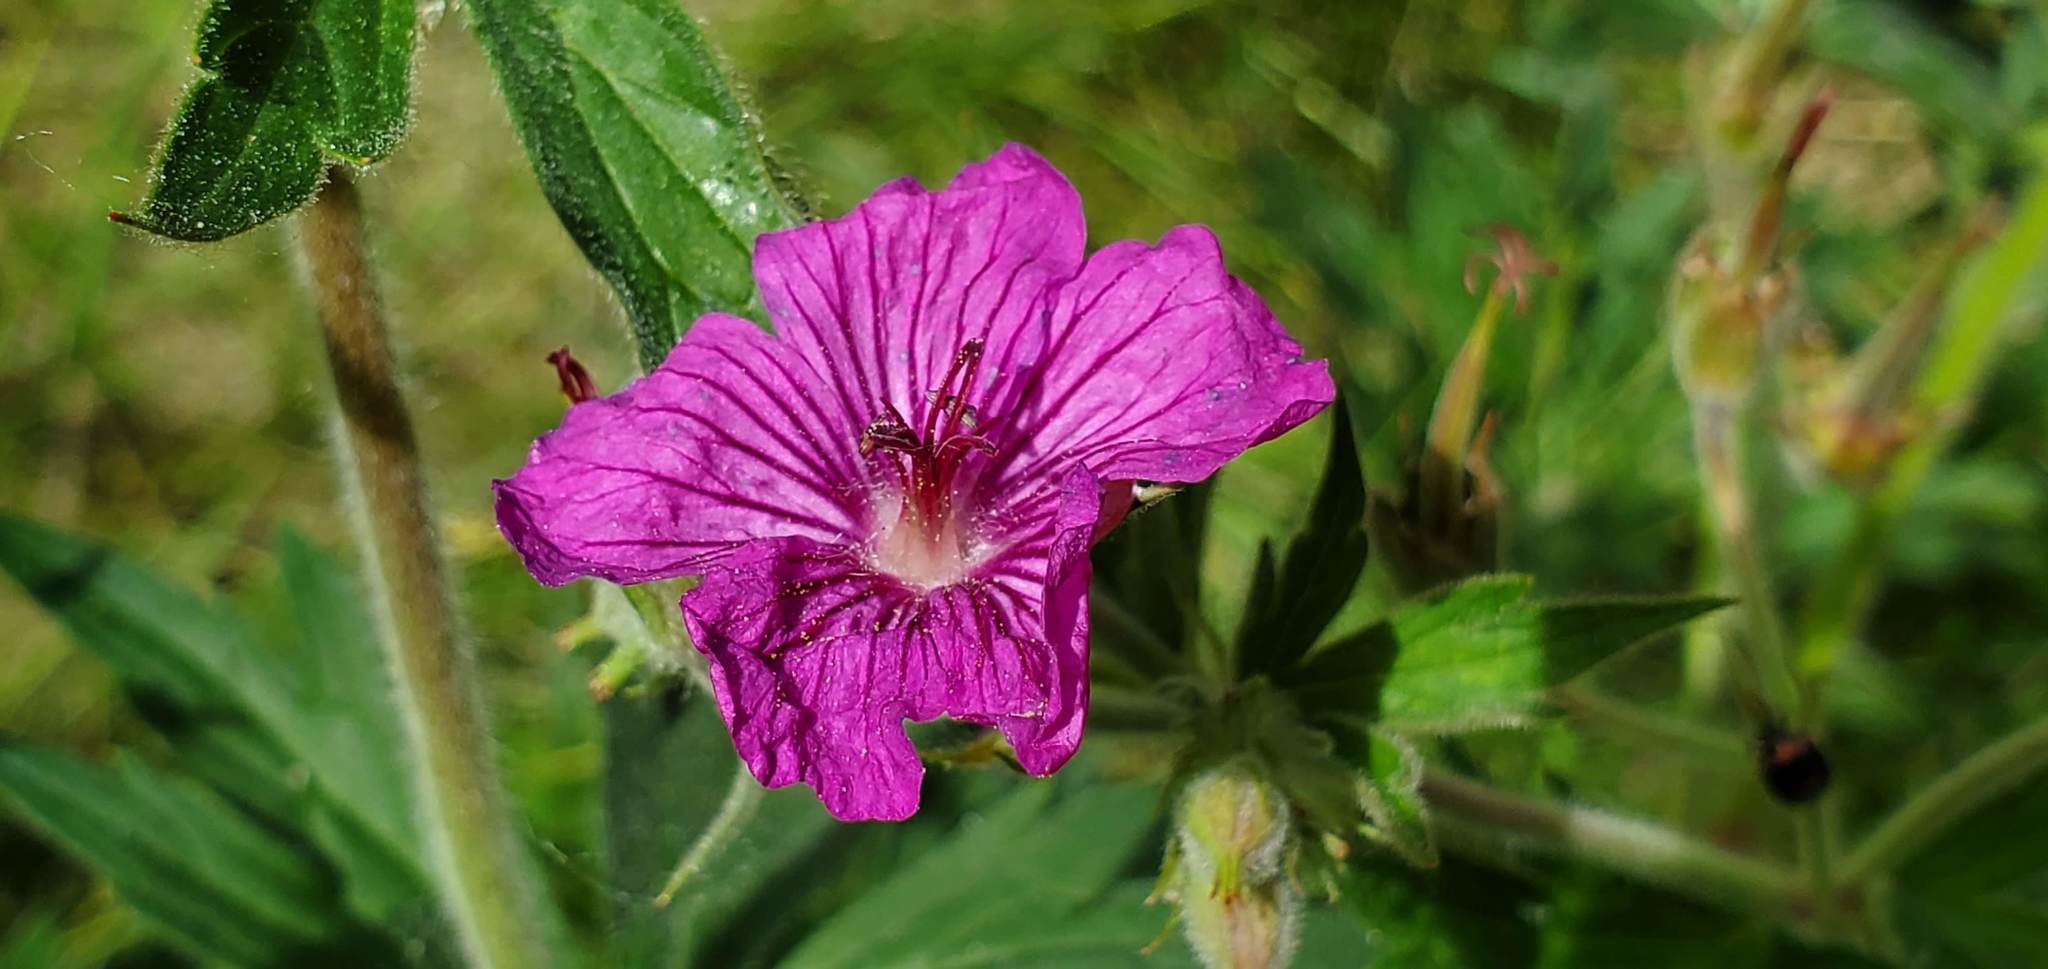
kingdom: Plantae
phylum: Tracheophyta
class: Magnoliopsida
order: Geraniales
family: Geraniaceae
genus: Geranium
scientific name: Geranium viscosissimum
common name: Purple geranium
